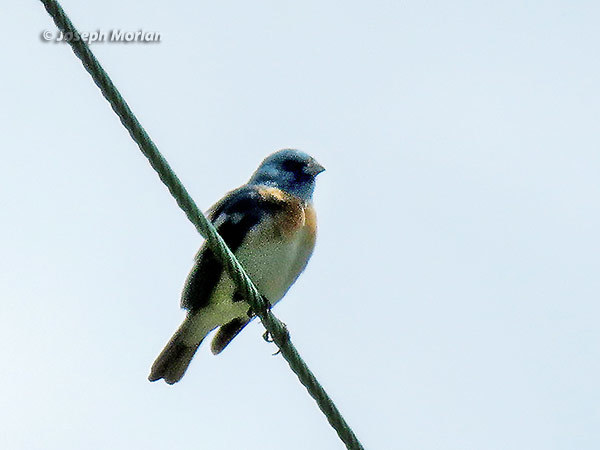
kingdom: Animalia
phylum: Chordata
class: Aves
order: Passeriformes
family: Cardinalidae
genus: Passerina
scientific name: Passerina amoena
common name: Lazuli bunting
